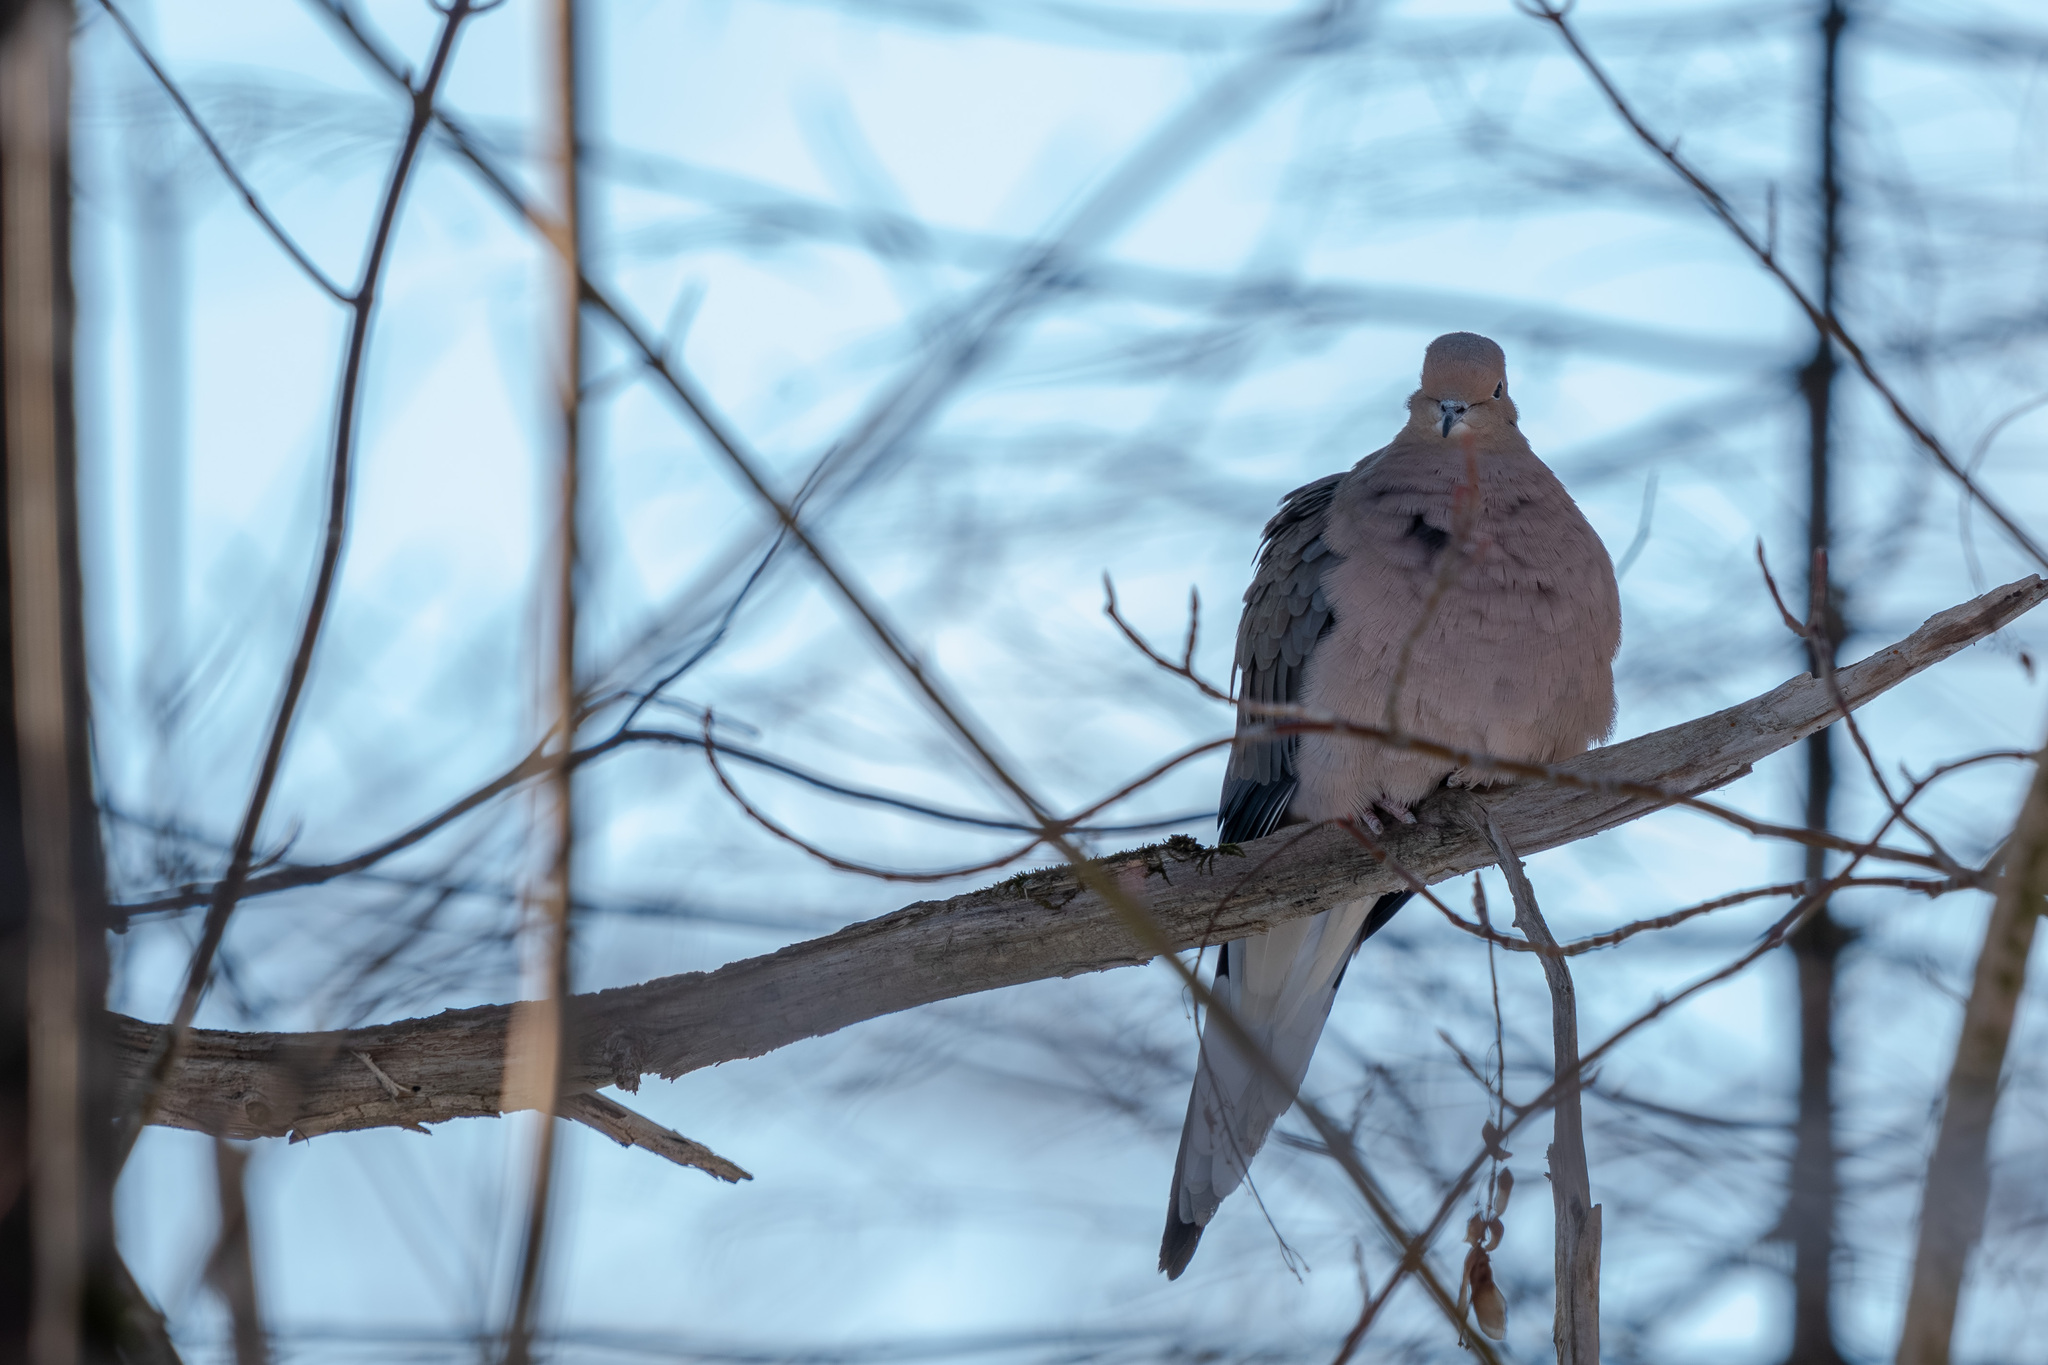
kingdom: Animalia
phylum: Chordata
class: Aves
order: Columbiformes
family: Columbidae
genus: Zenaida
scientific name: Zenaida macroura
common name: Mourning dove
